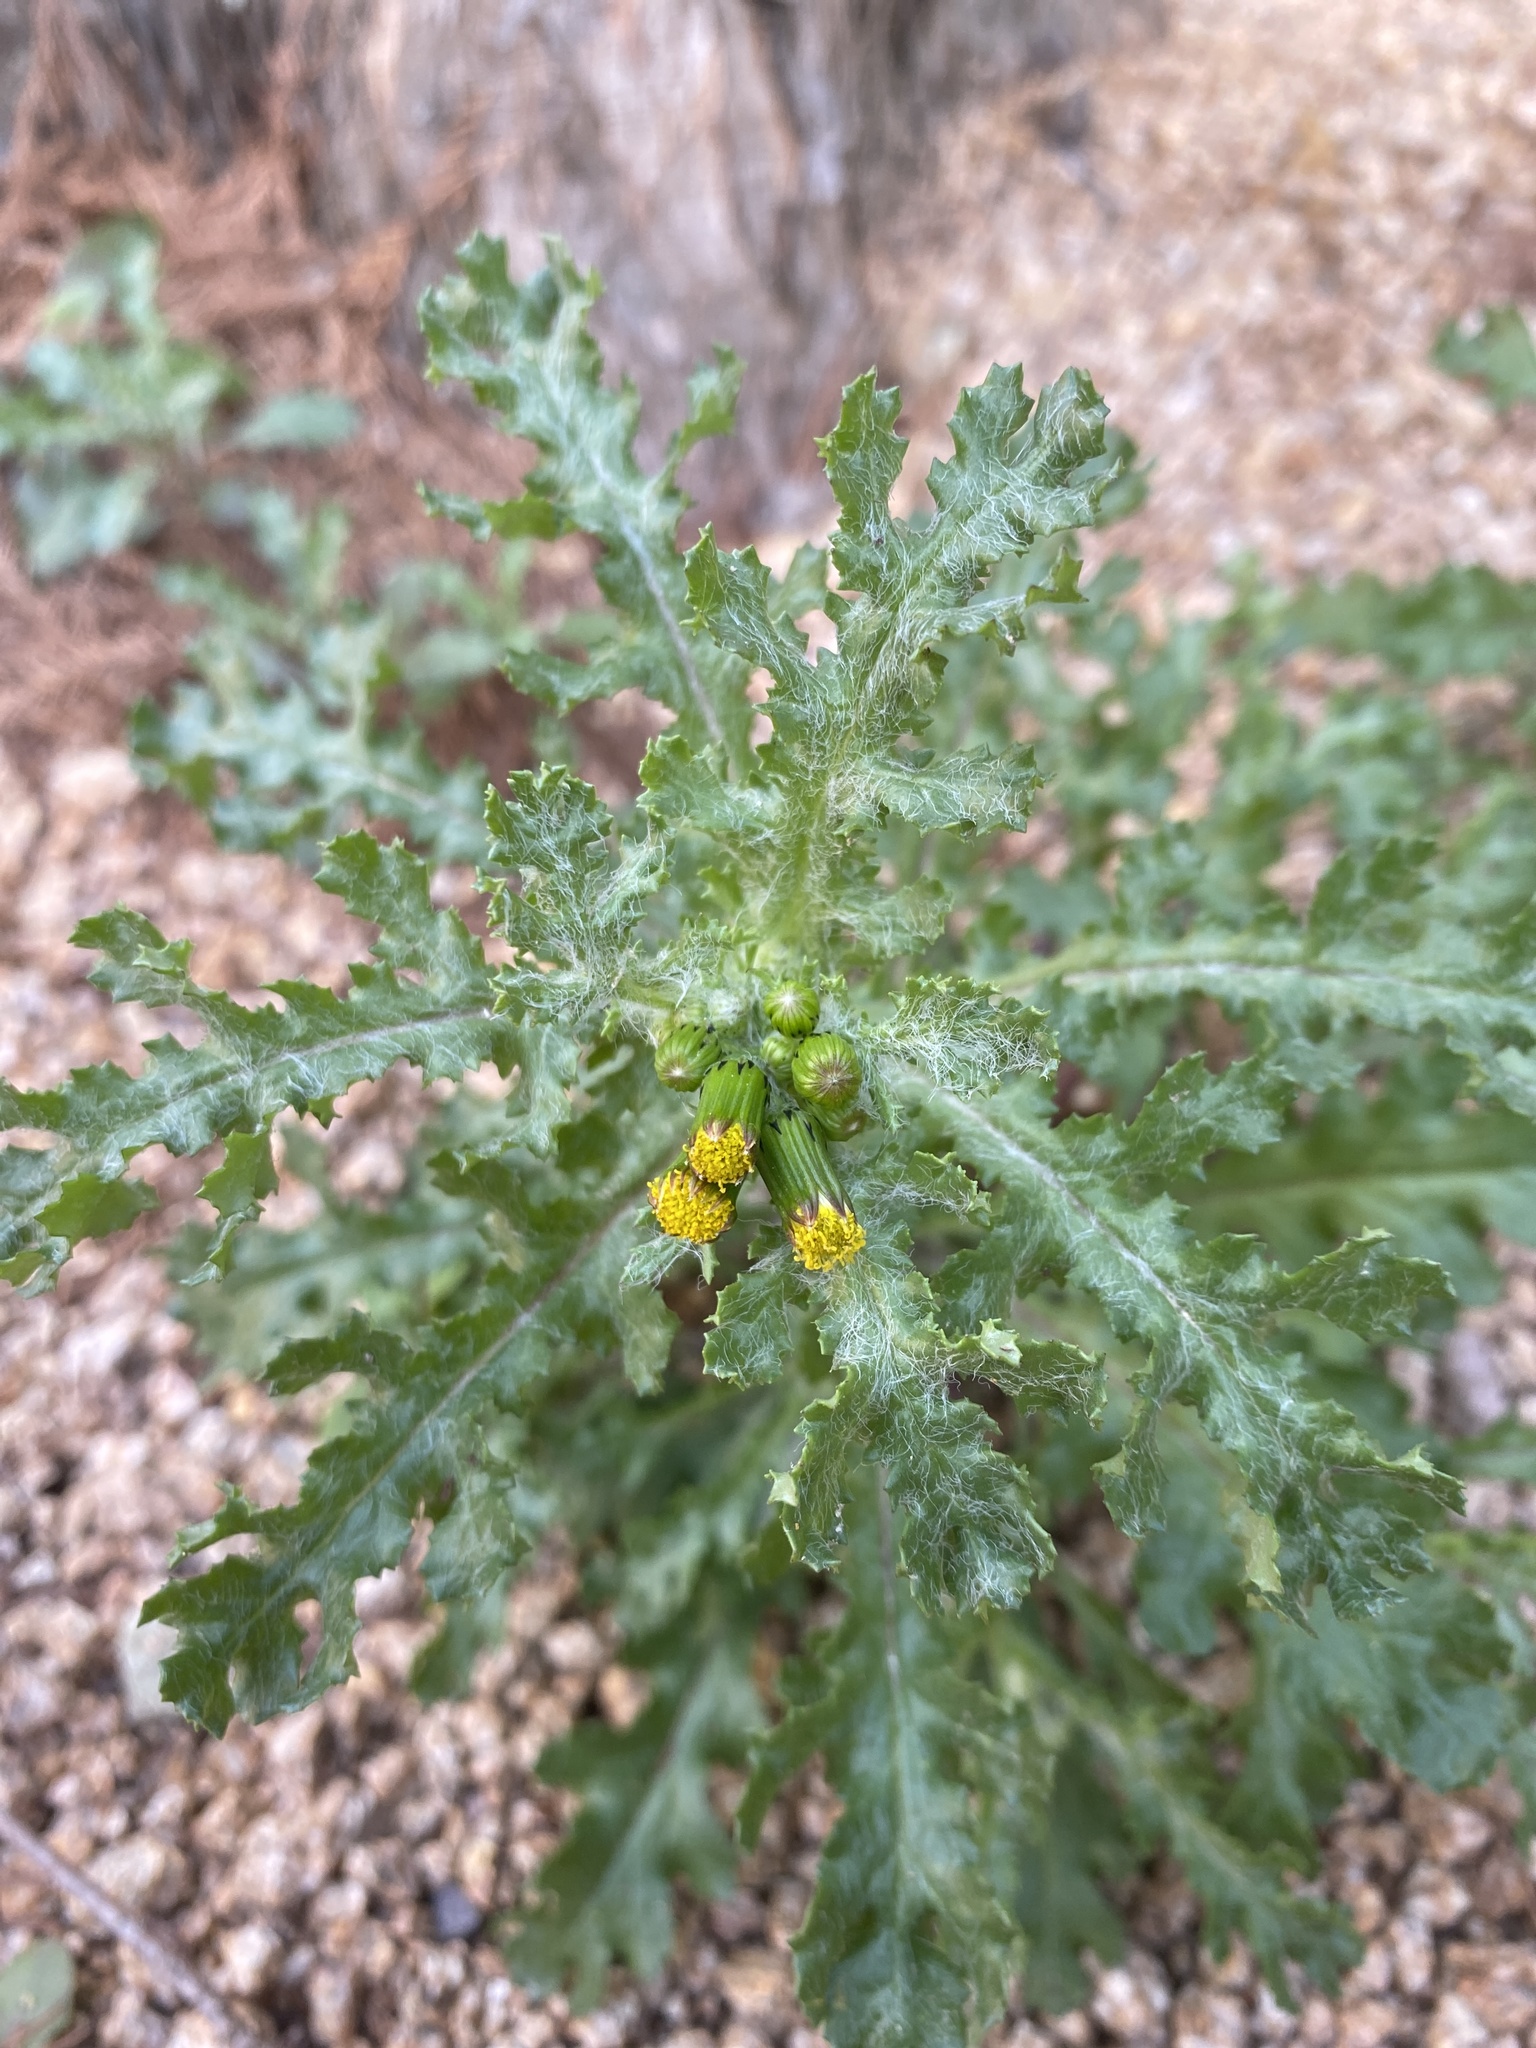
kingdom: Plantae
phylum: Tracheophyta
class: Magnoliopsida
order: Asterales
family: Asteraceae
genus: Senecio
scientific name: Senecio vulgaris
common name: Old-man-in-the-spring
